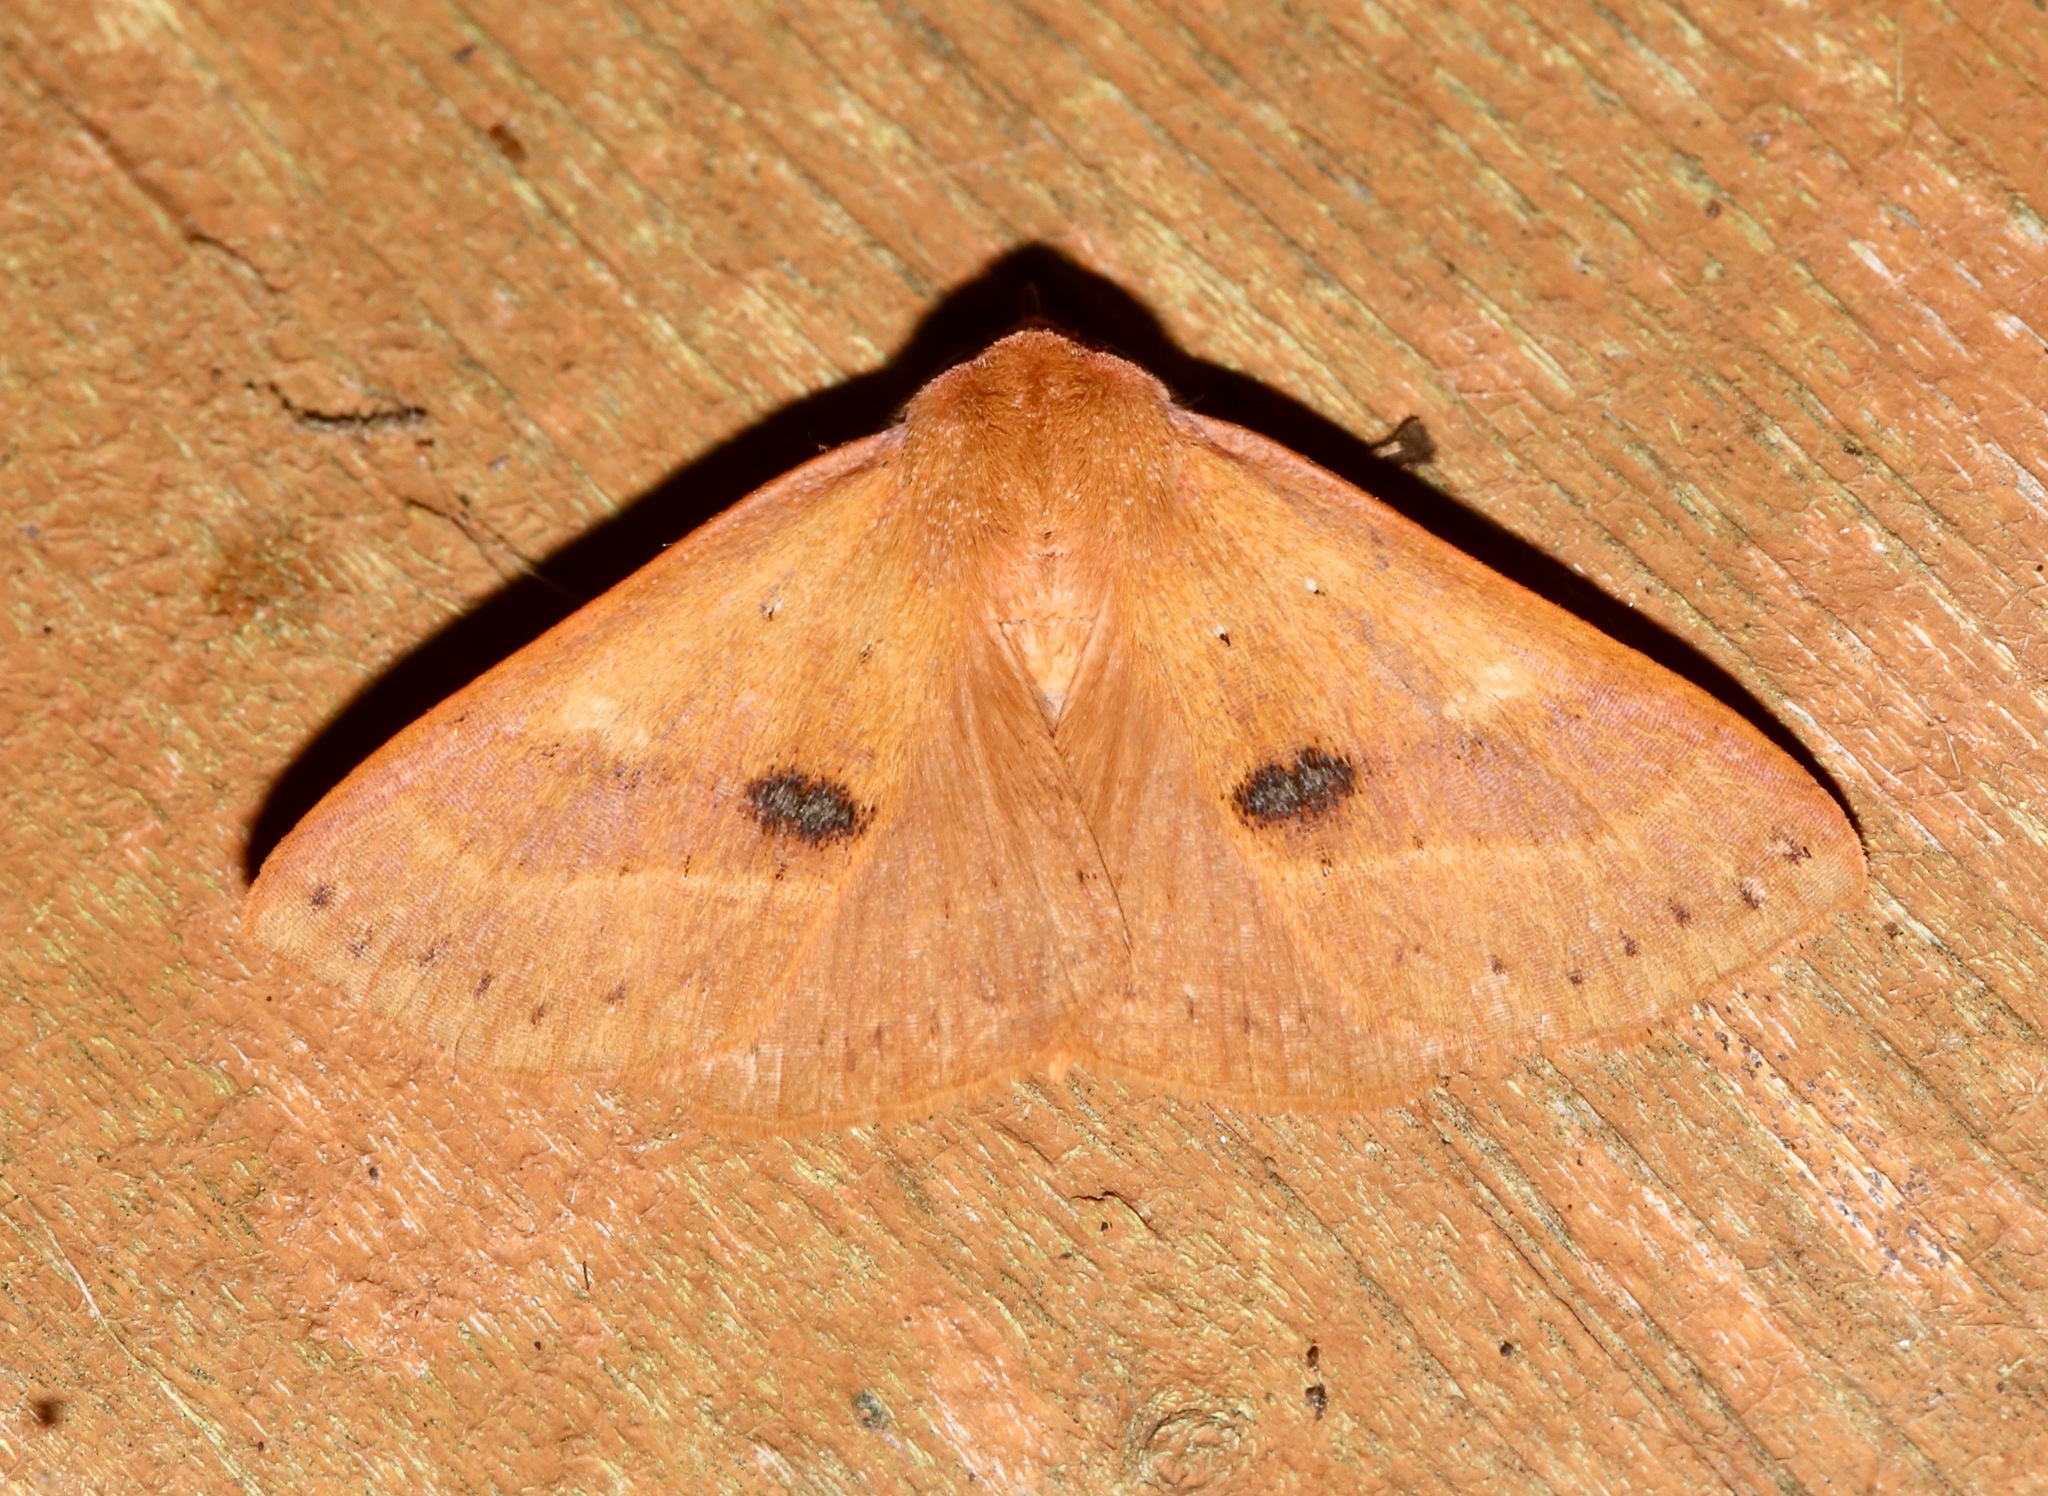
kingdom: Animalia
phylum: Arthropoda
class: Insecta
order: Lepidoptera
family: Erebidae
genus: Panopoda
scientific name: Panopoda repanda
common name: Orange panopoda
